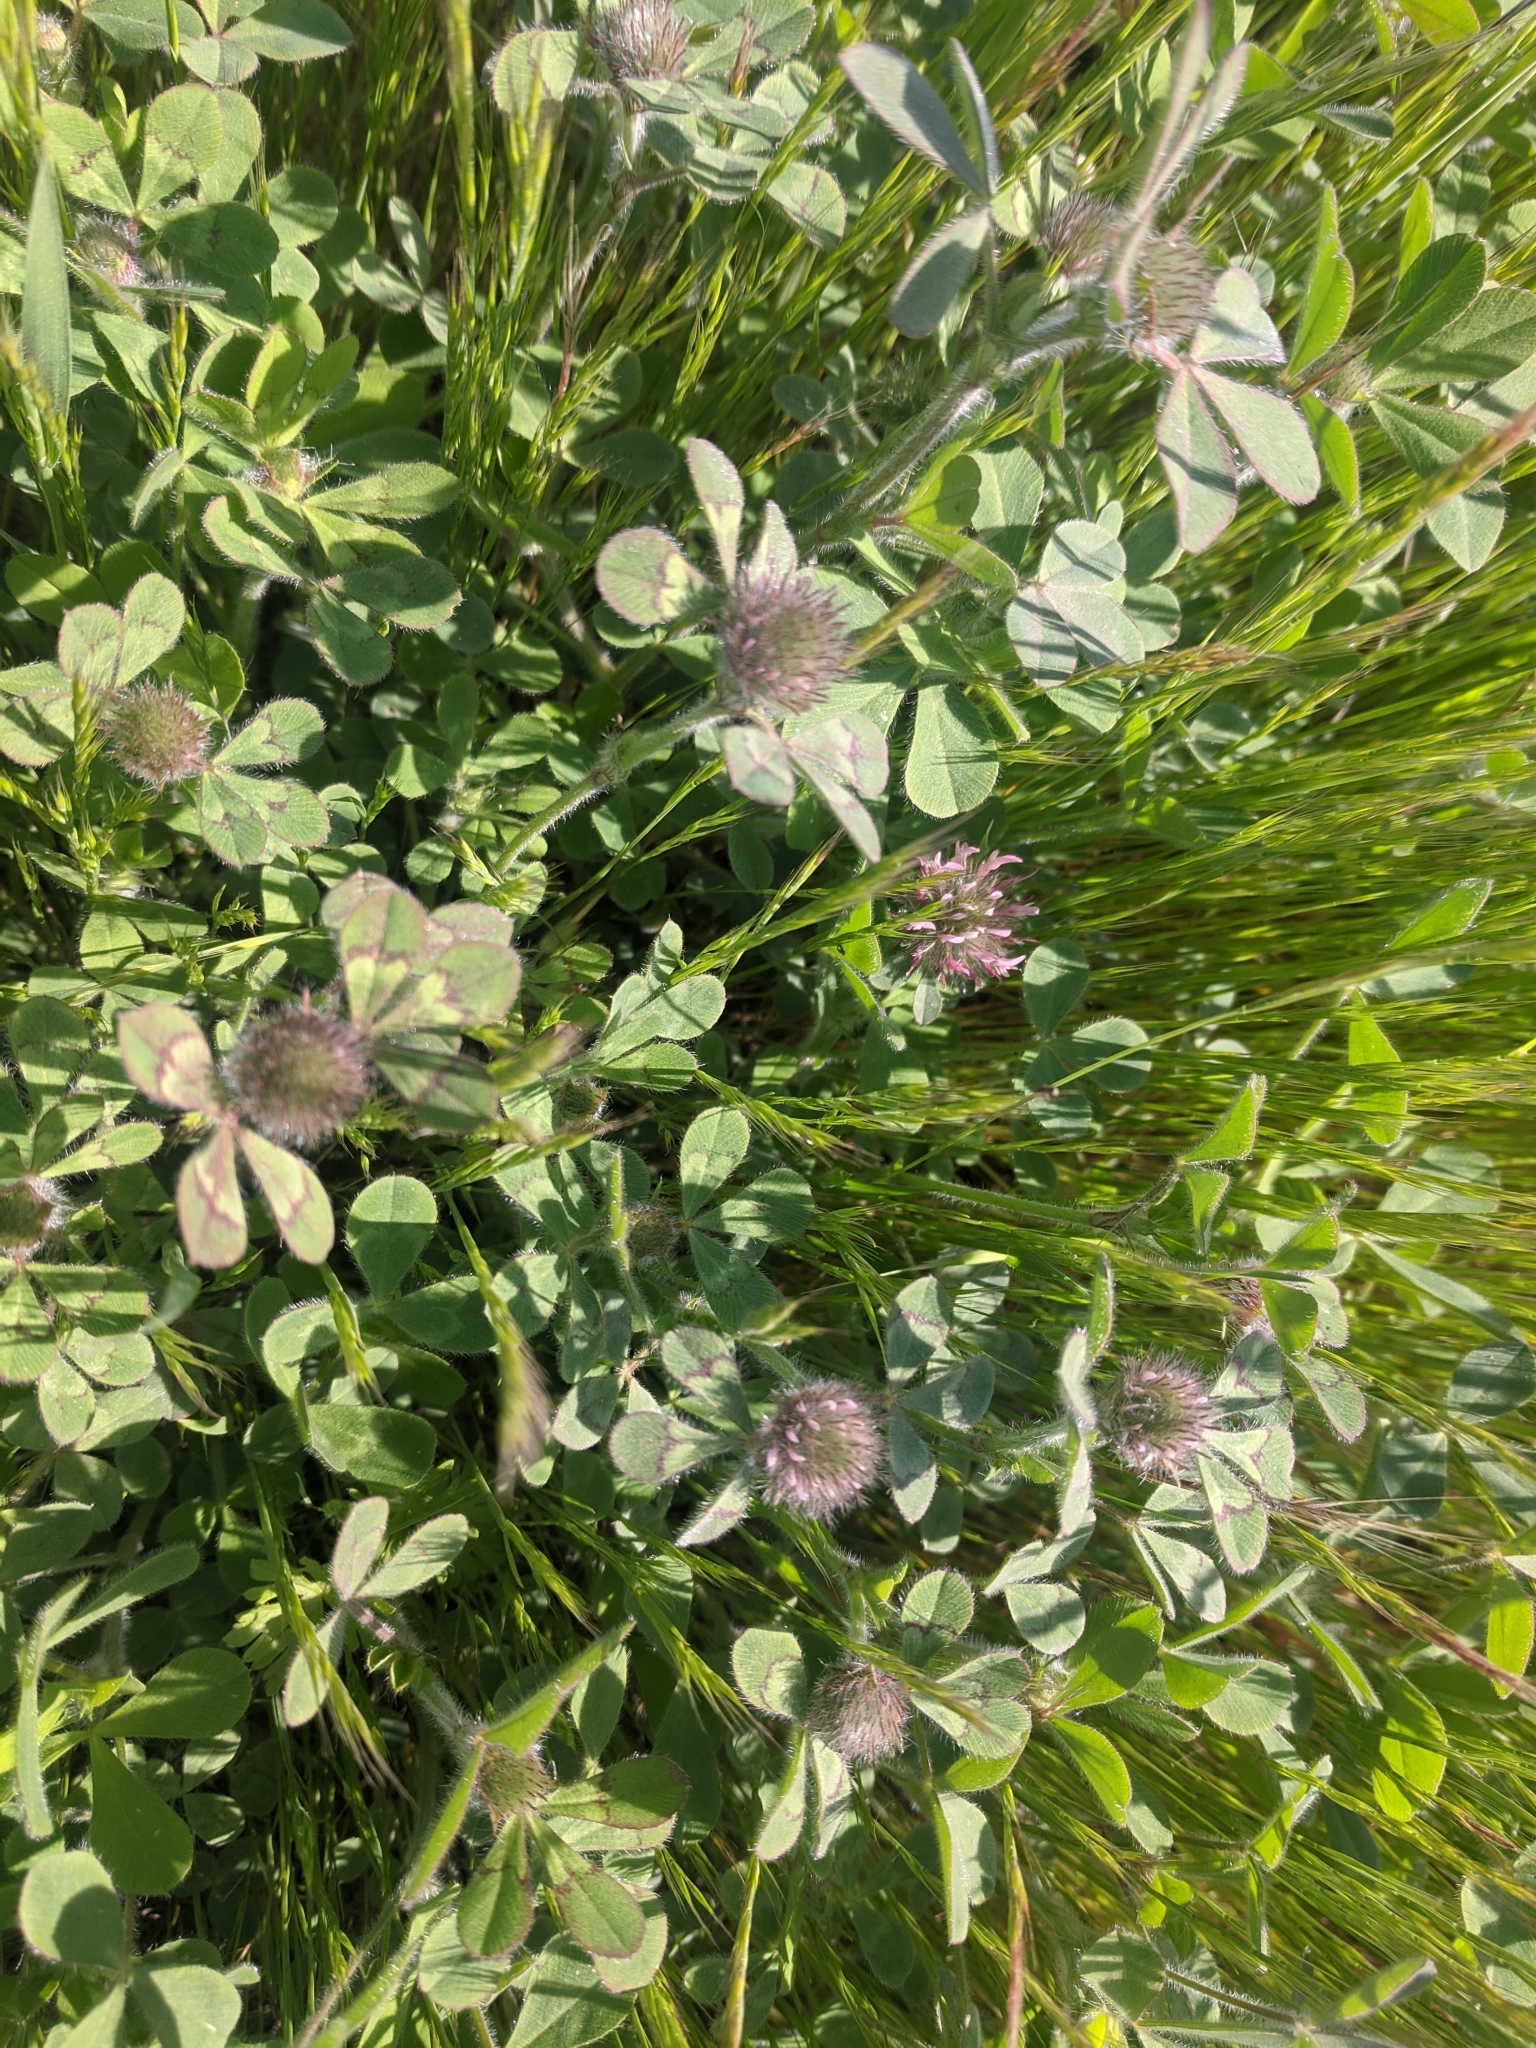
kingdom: Plantae
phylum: Tracheophyta
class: Magnoliopsida
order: Fabales
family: Fabaceae
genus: Trifolium
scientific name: Trifolium hirtum
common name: Rose clover
